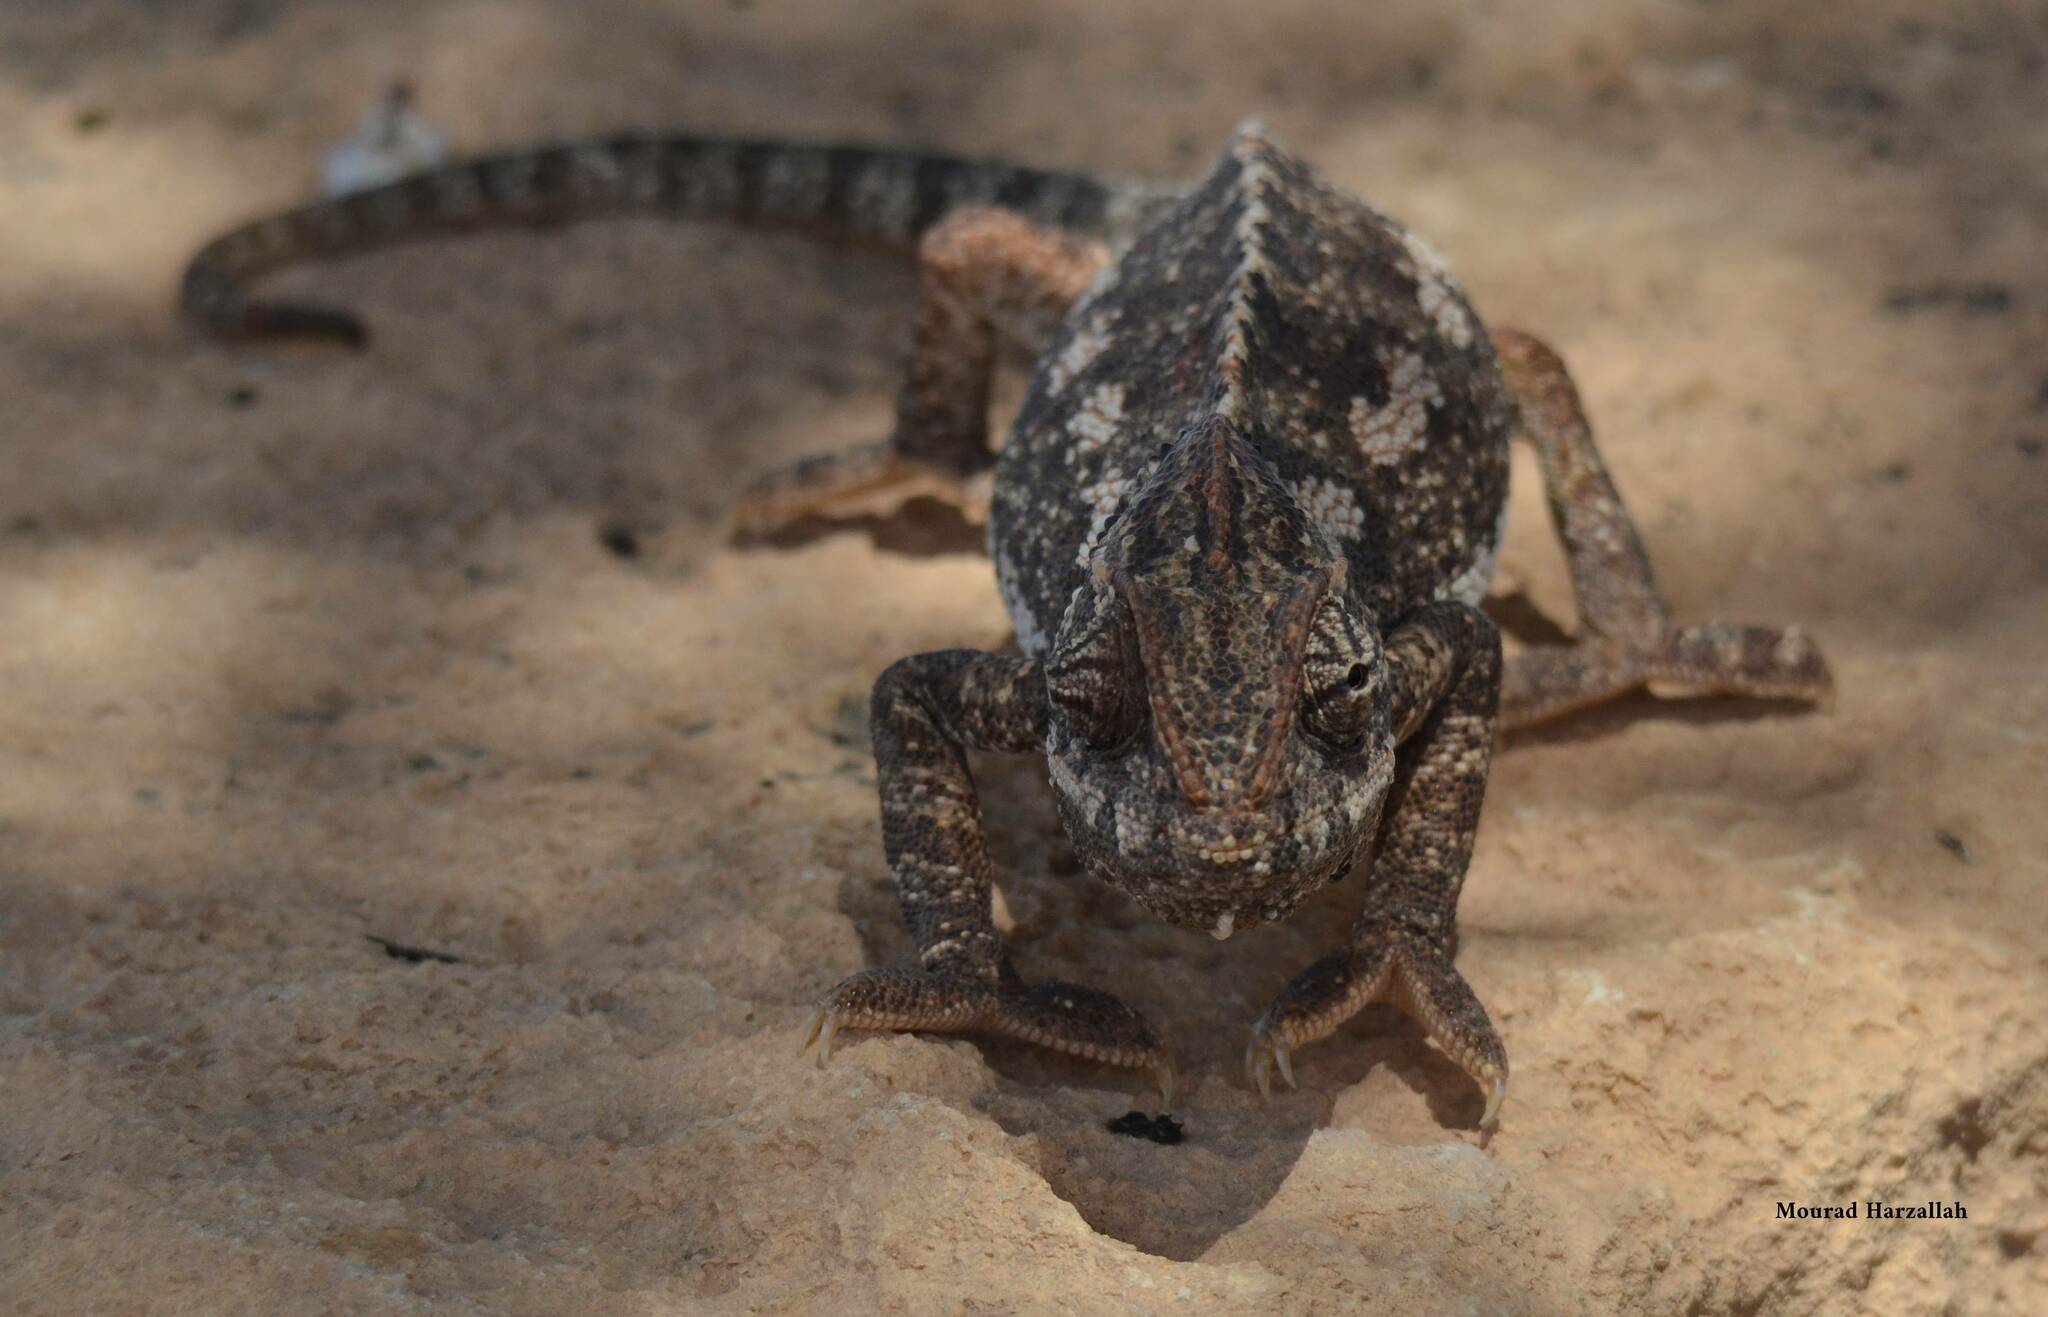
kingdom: Animalia
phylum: Chordata
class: Squamata
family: Chamaeleonidae
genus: Chamaeleo
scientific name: Chamaeleo chamaeleon
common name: Mediterranean chameleon
